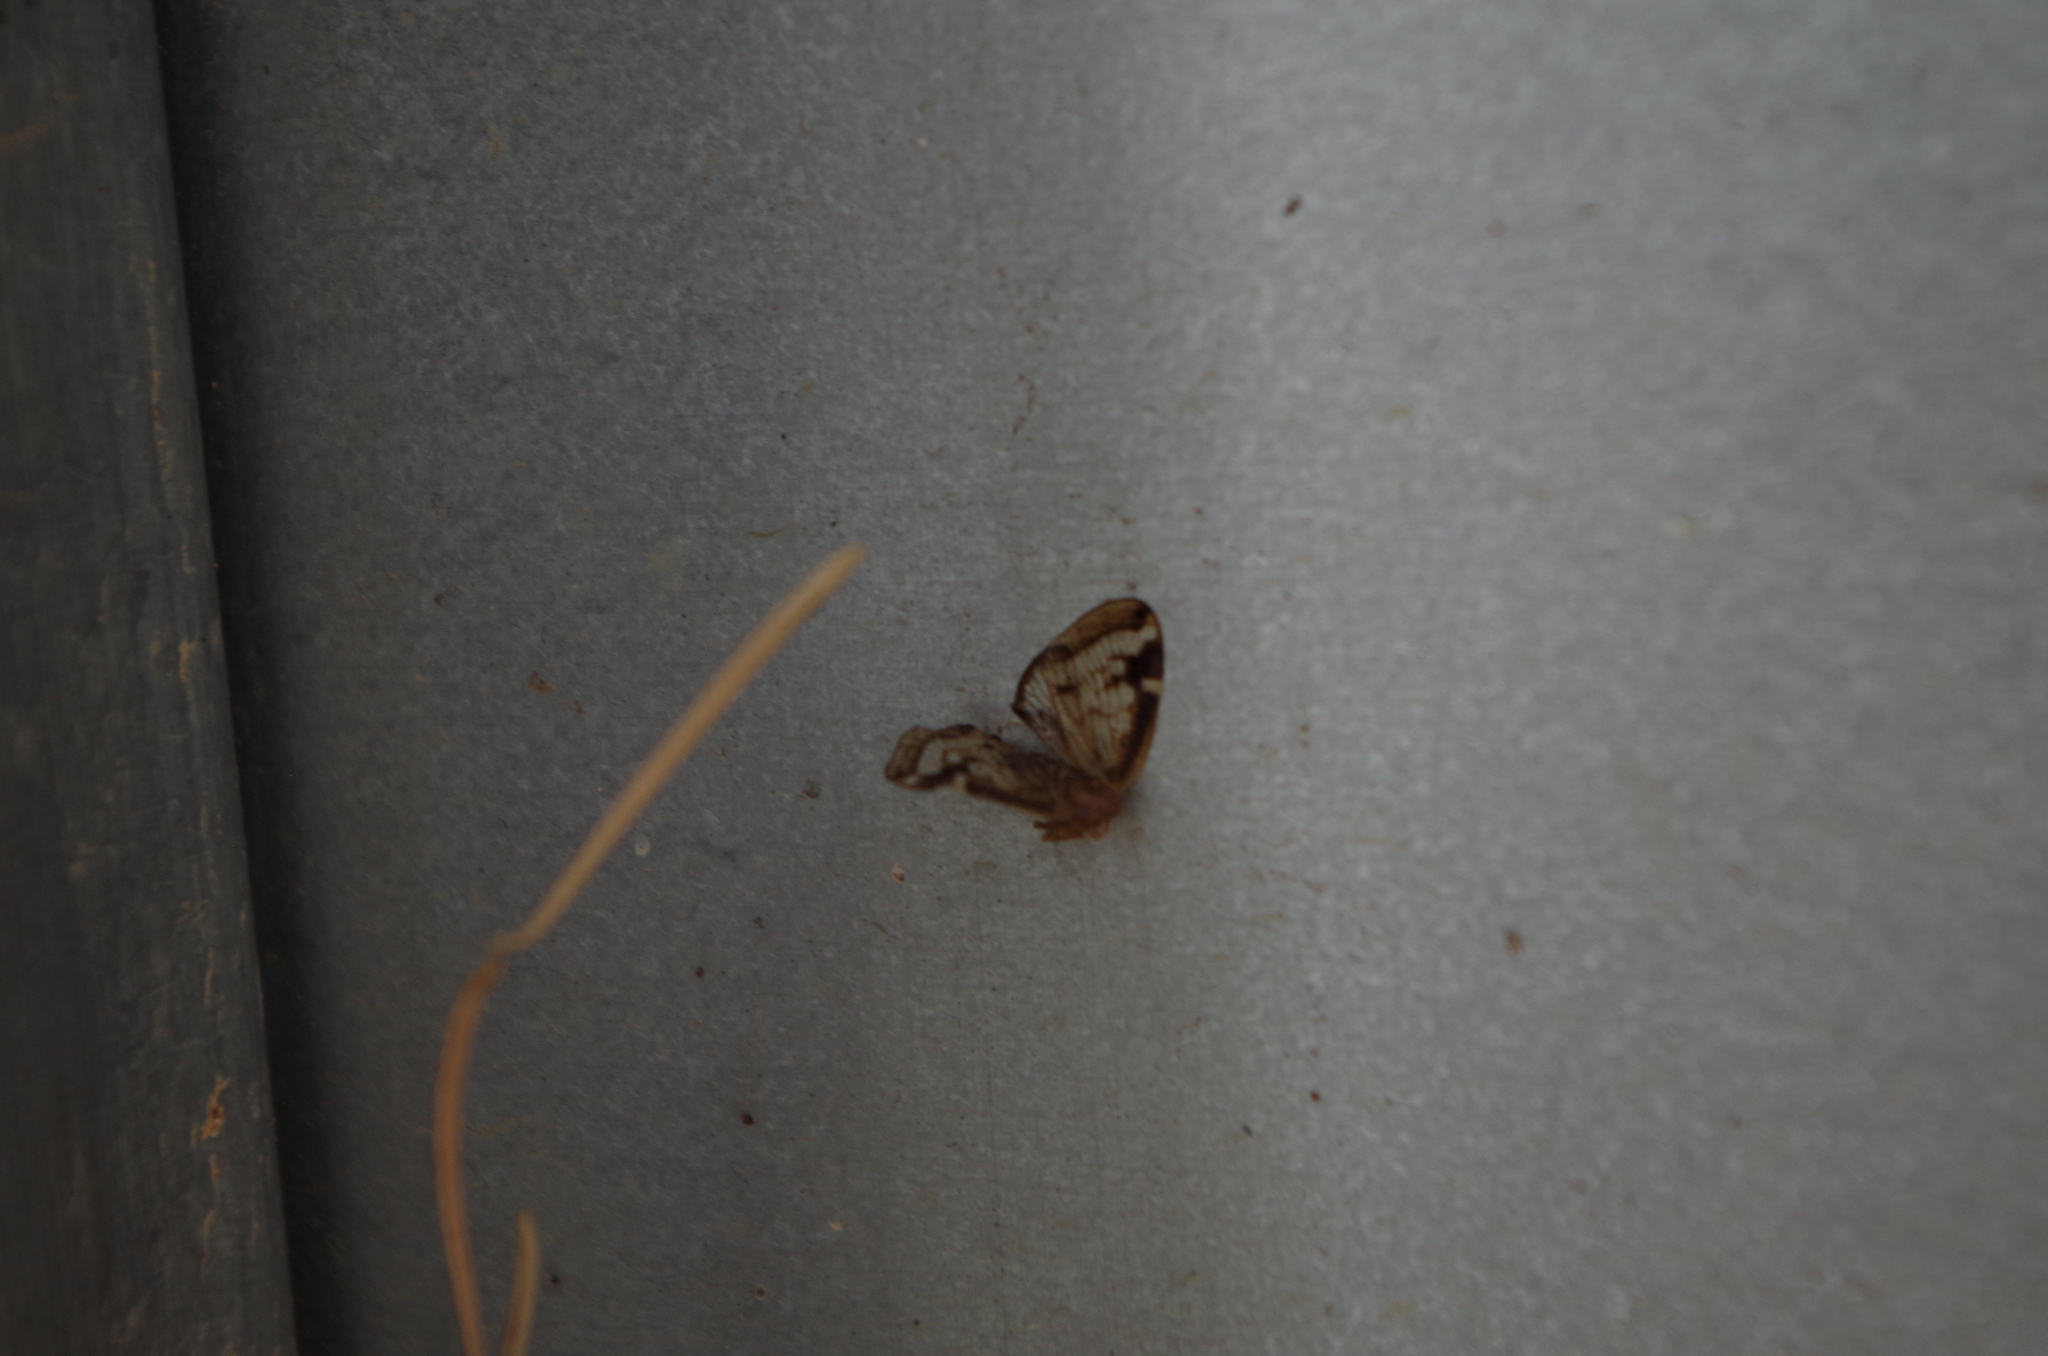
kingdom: Animalia
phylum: Arthropoda
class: Insecta
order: Hemiptera
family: Ricaniidae
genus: Scolypopa
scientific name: Scolypopa australis
